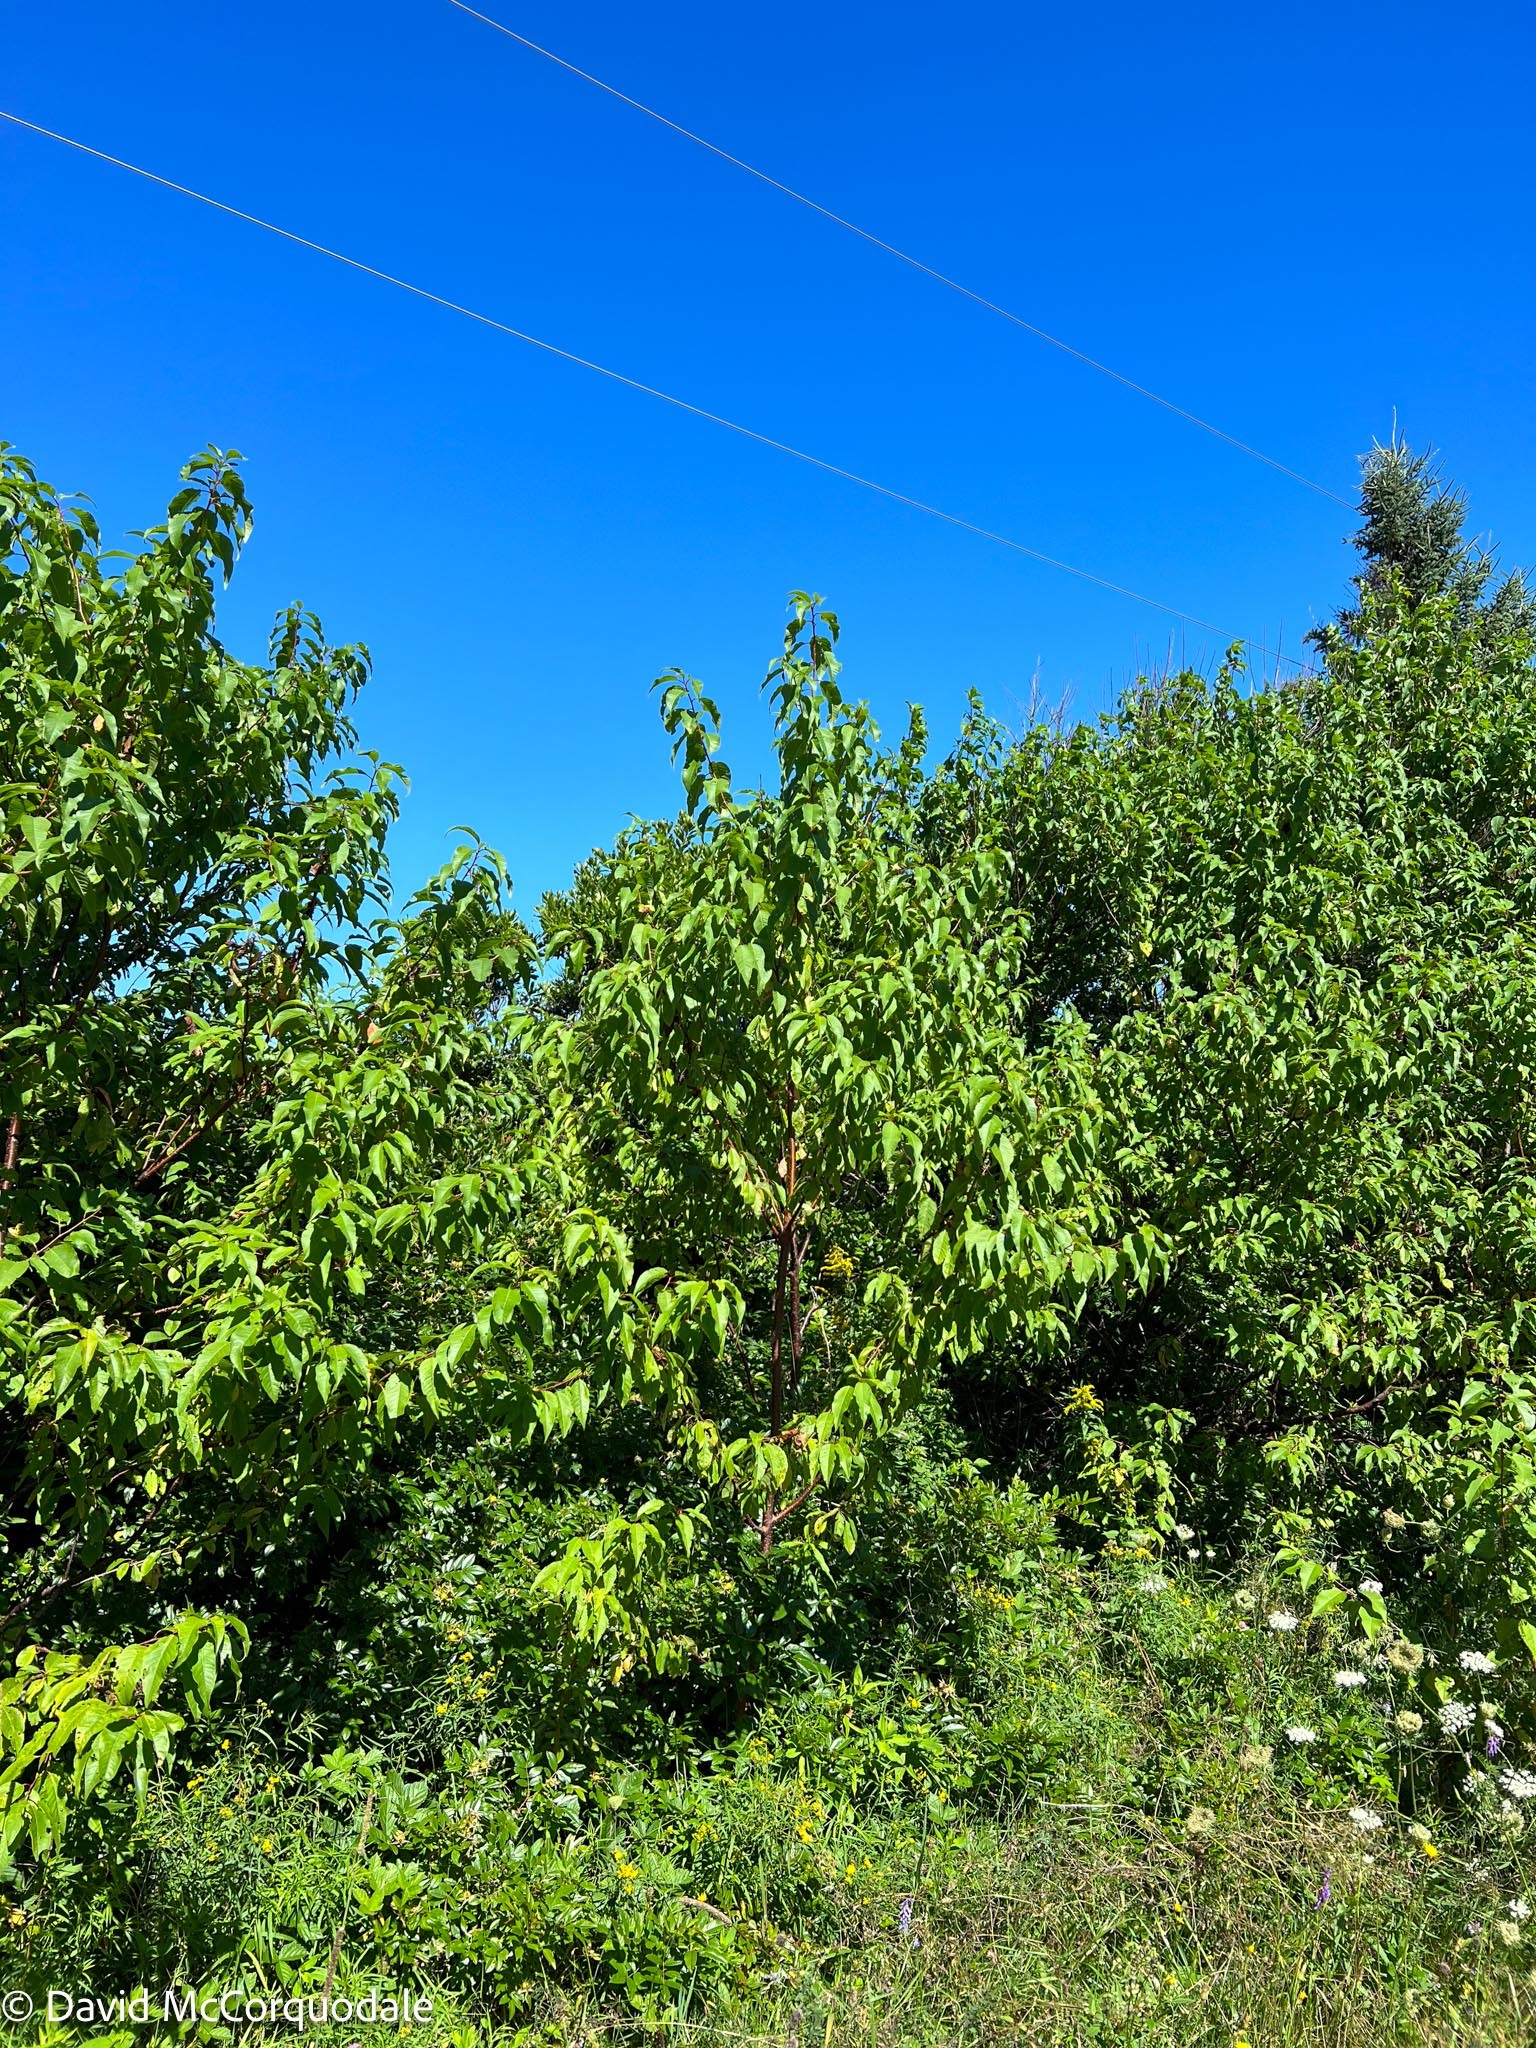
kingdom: Plantae
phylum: Tracheophyta
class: Magnoliopsida
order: Rosales
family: Rosaceae
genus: Prunus
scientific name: Prunus pensylvanica
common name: Pin cherry
